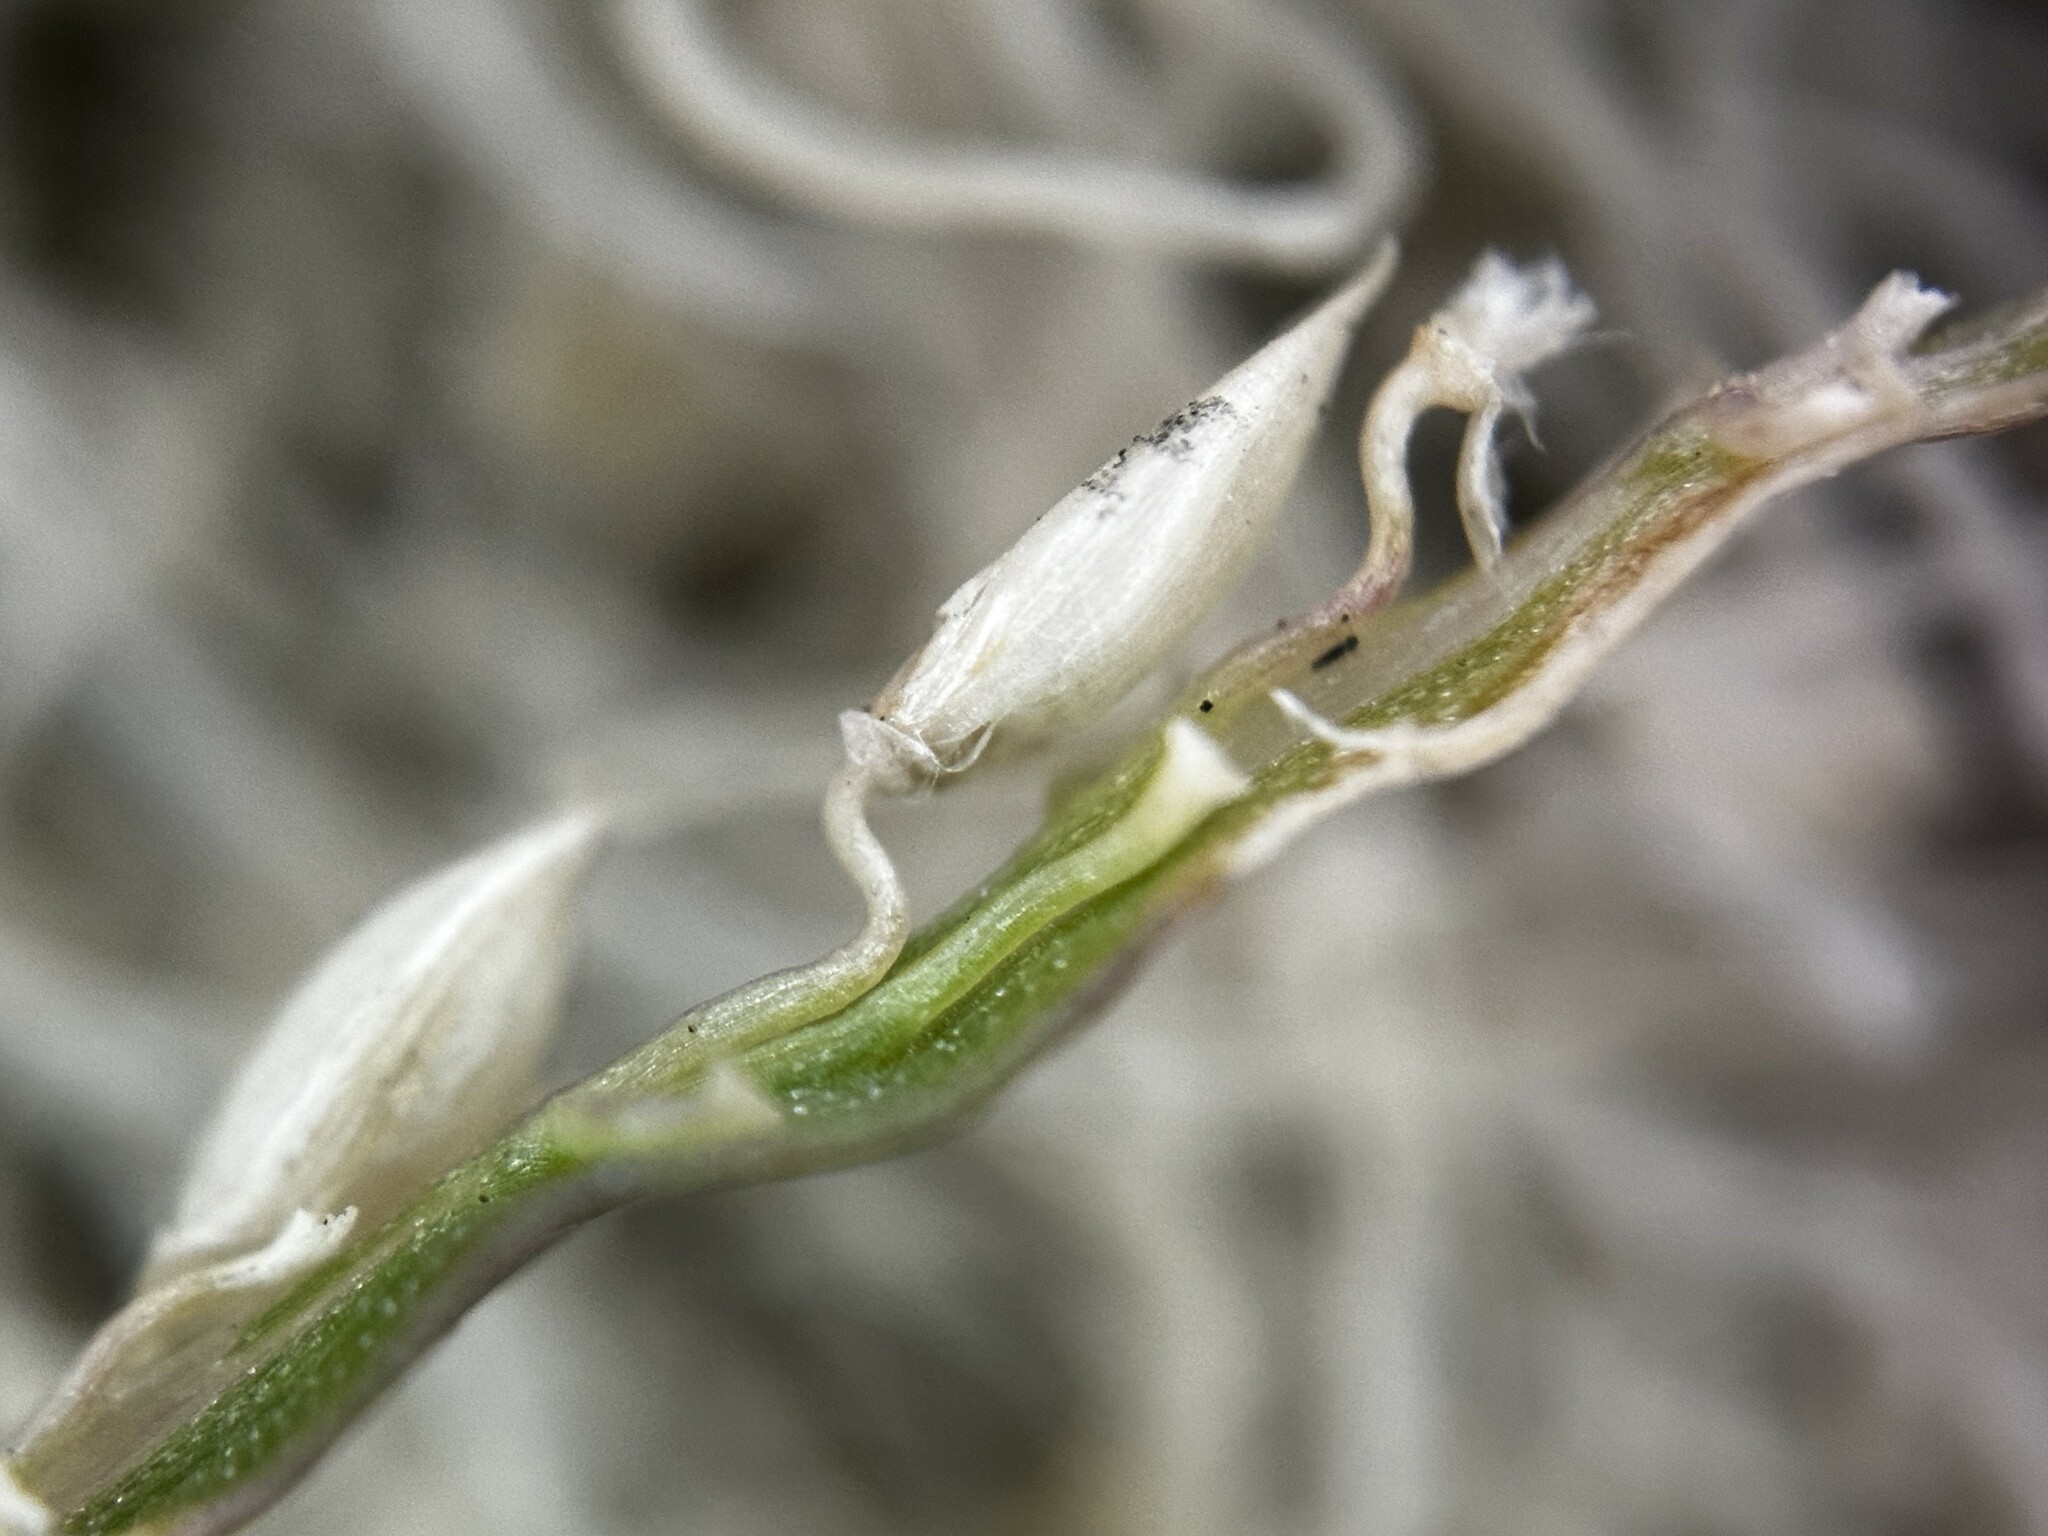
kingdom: Plantae
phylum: Tracheophyta
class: Liliopsida
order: Poales
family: Poaceae
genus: Digitaria
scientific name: Digitaria longiflora
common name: Wire crabgrass
